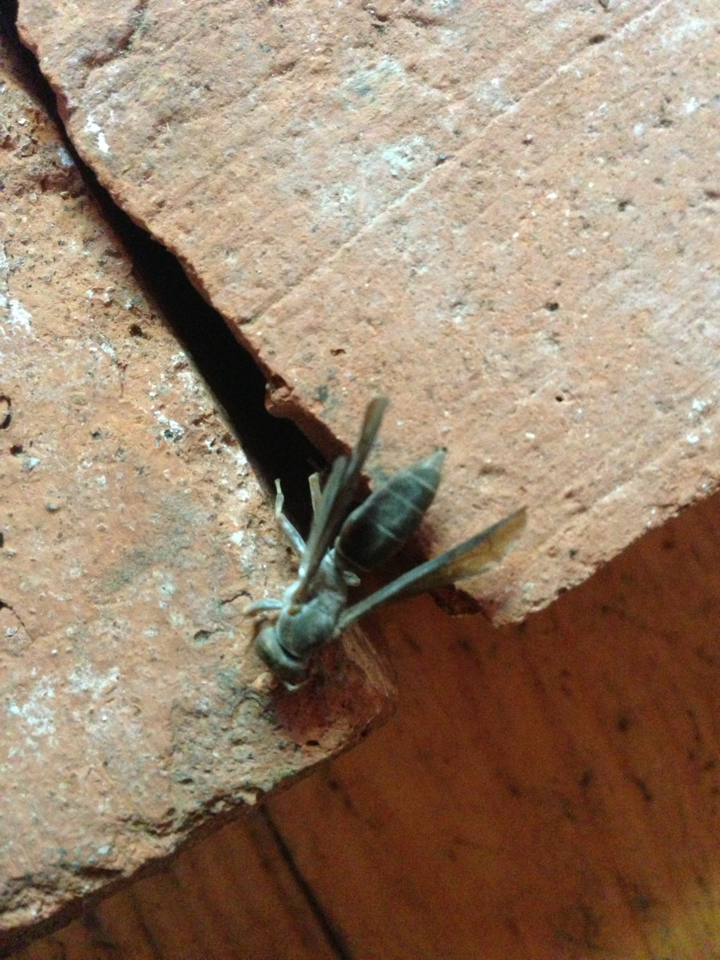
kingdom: Animalia
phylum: Arthropoda
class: Insecta
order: Hymenoptera
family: Eumenidae
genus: Polistes
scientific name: Polistes fuscatus
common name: Dark paper wasp
